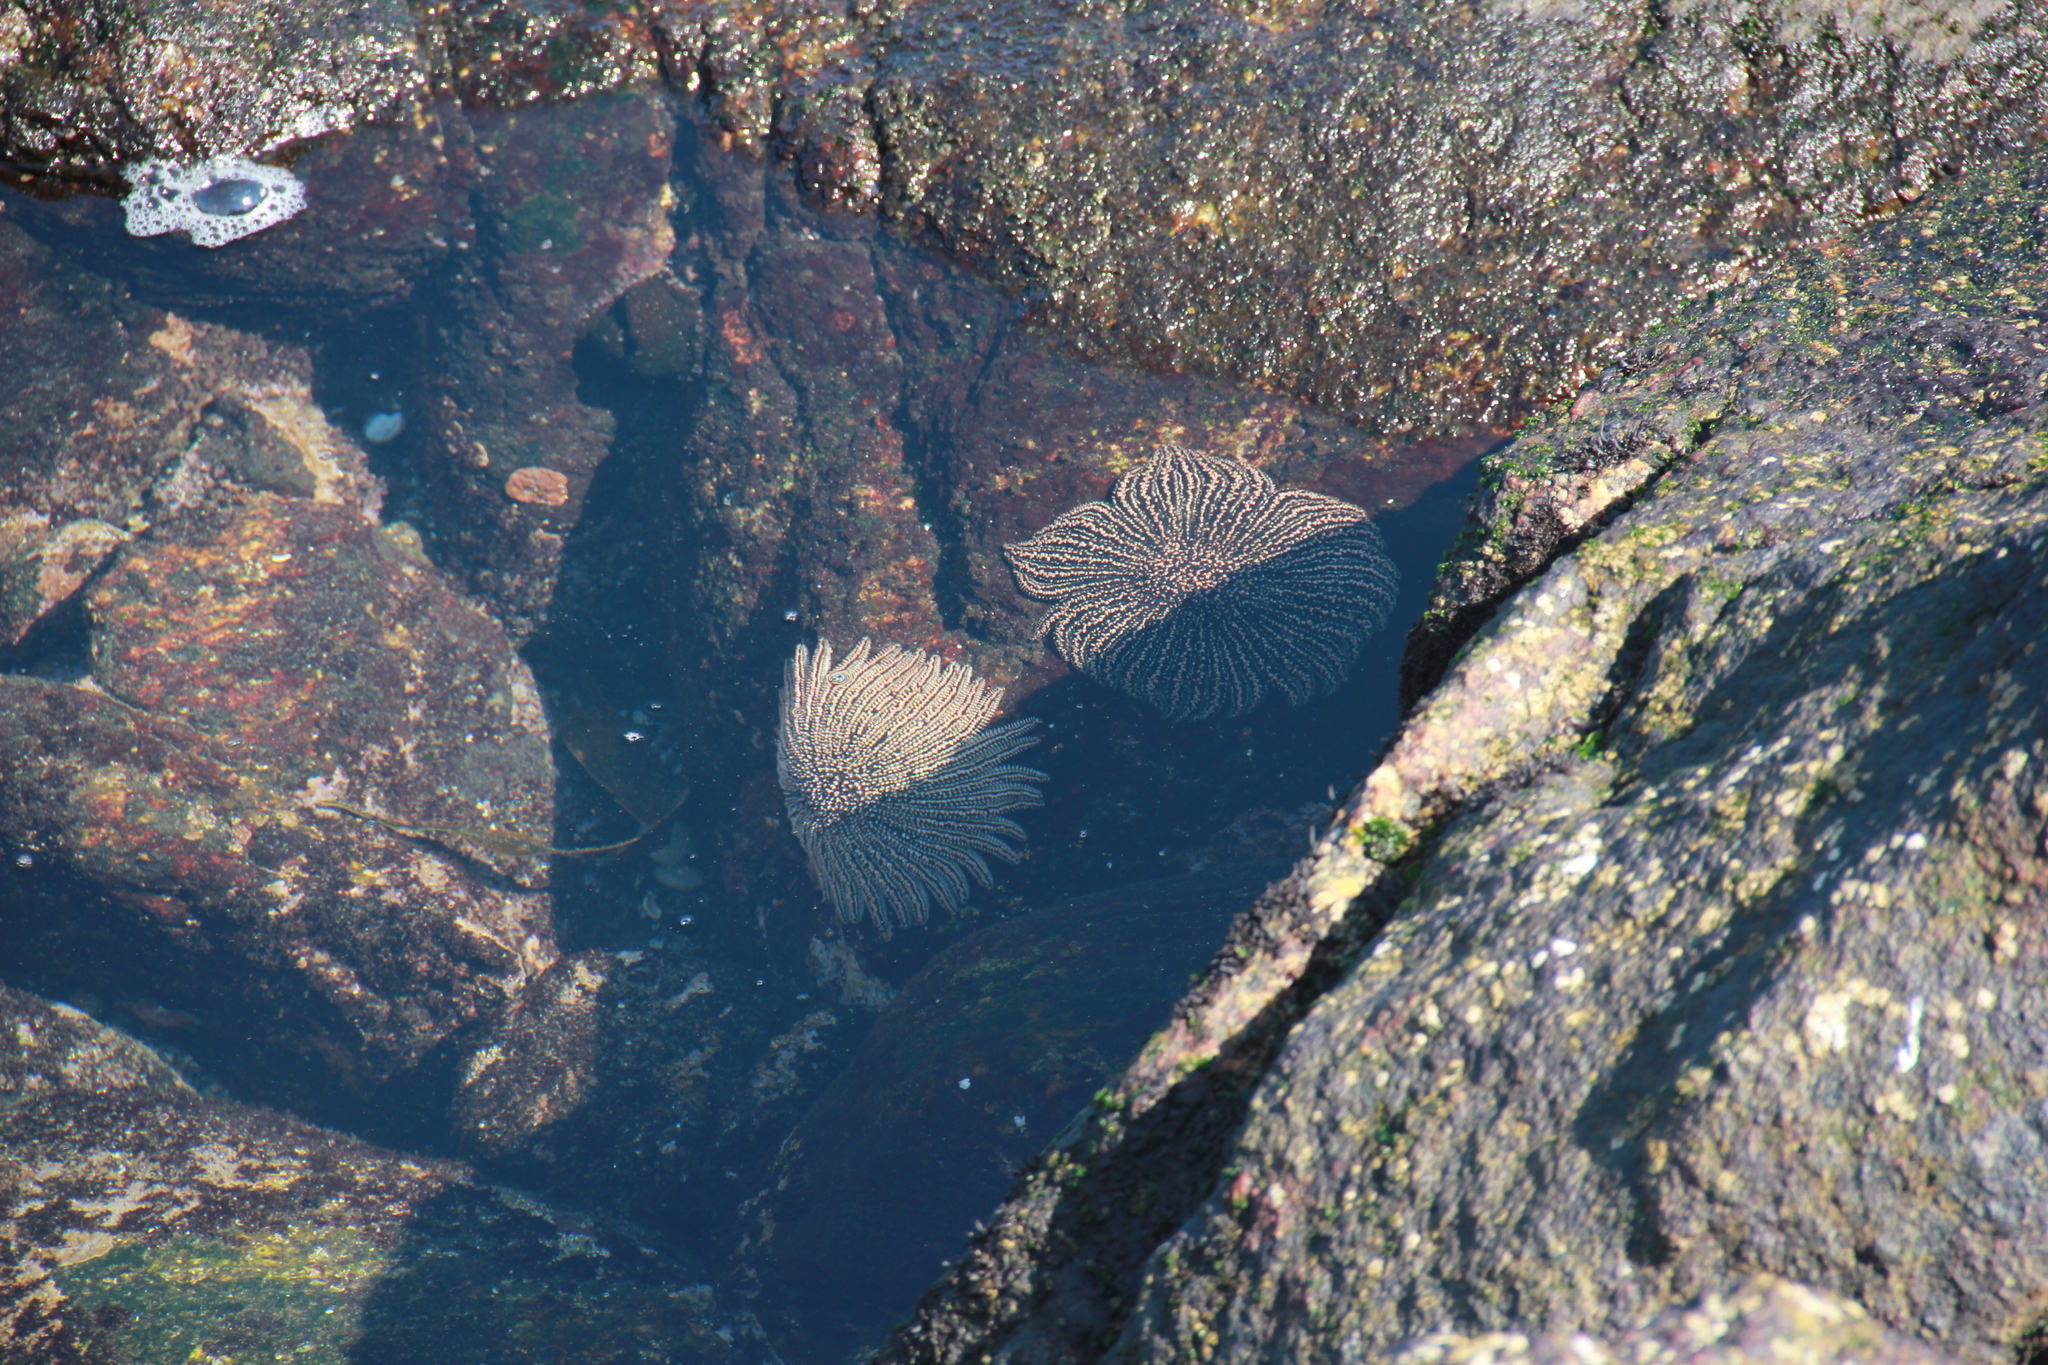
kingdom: Animalia
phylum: Echinodermata
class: Asteroidea
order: Forcipulatida
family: Heliasteridae
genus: Heliaster
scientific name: Heliaster helianthus
